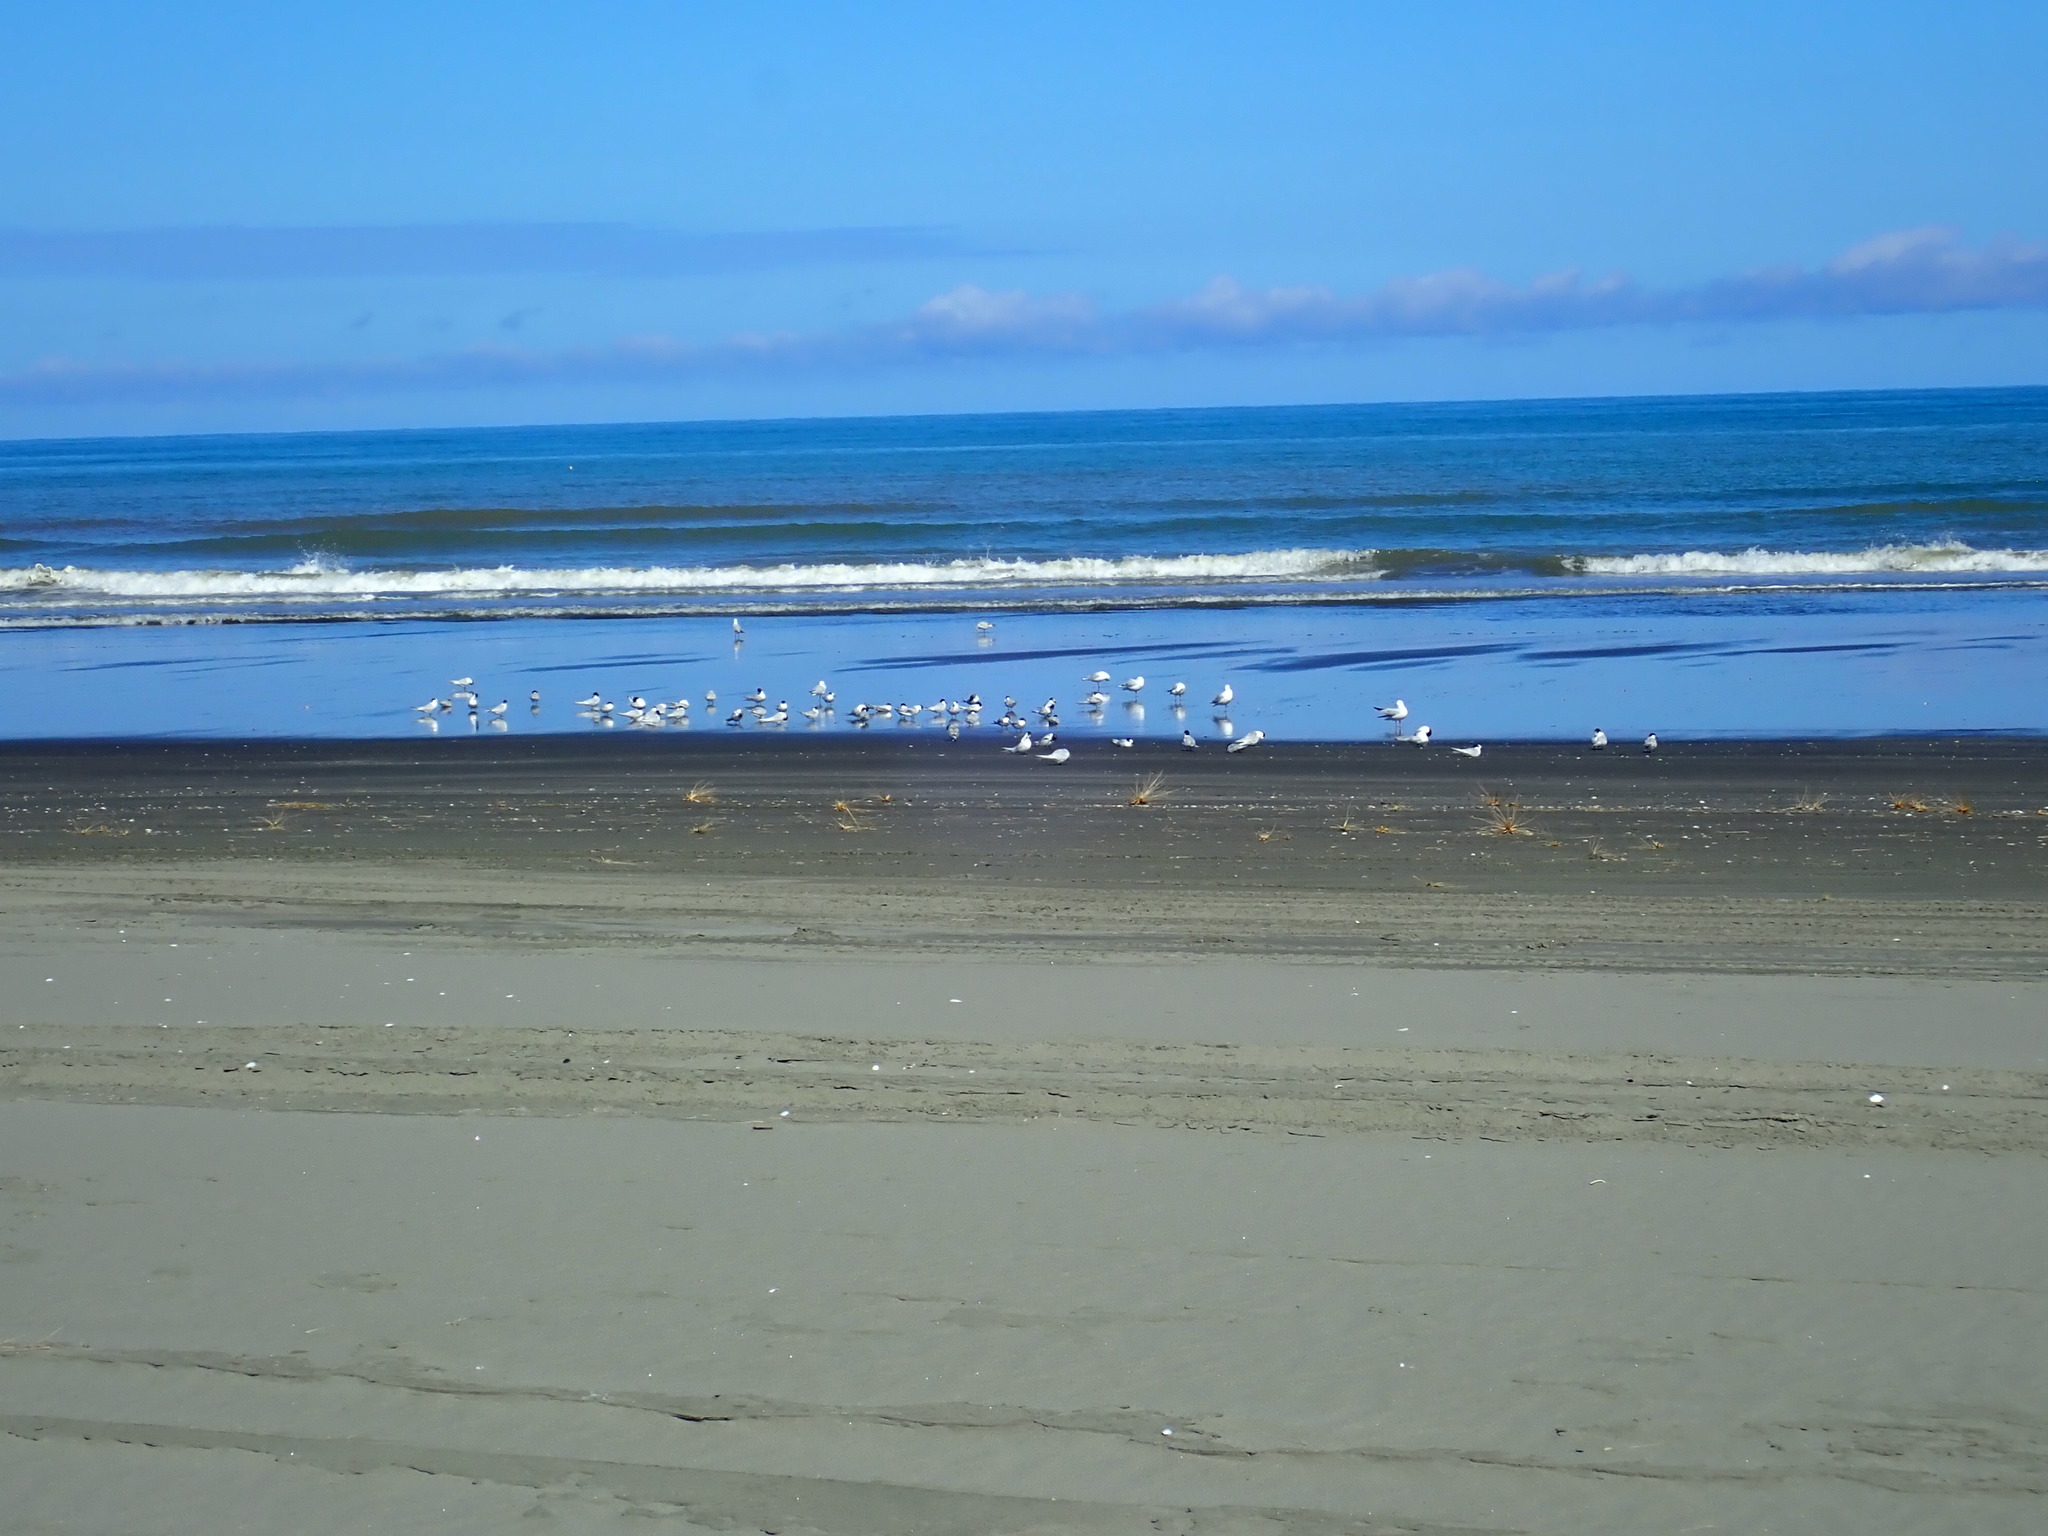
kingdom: Animalia
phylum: Chordata
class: Aves
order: Charadriiformes
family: Laridae
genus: Sterna
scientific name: Sterna striata
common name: White-fronted tern
